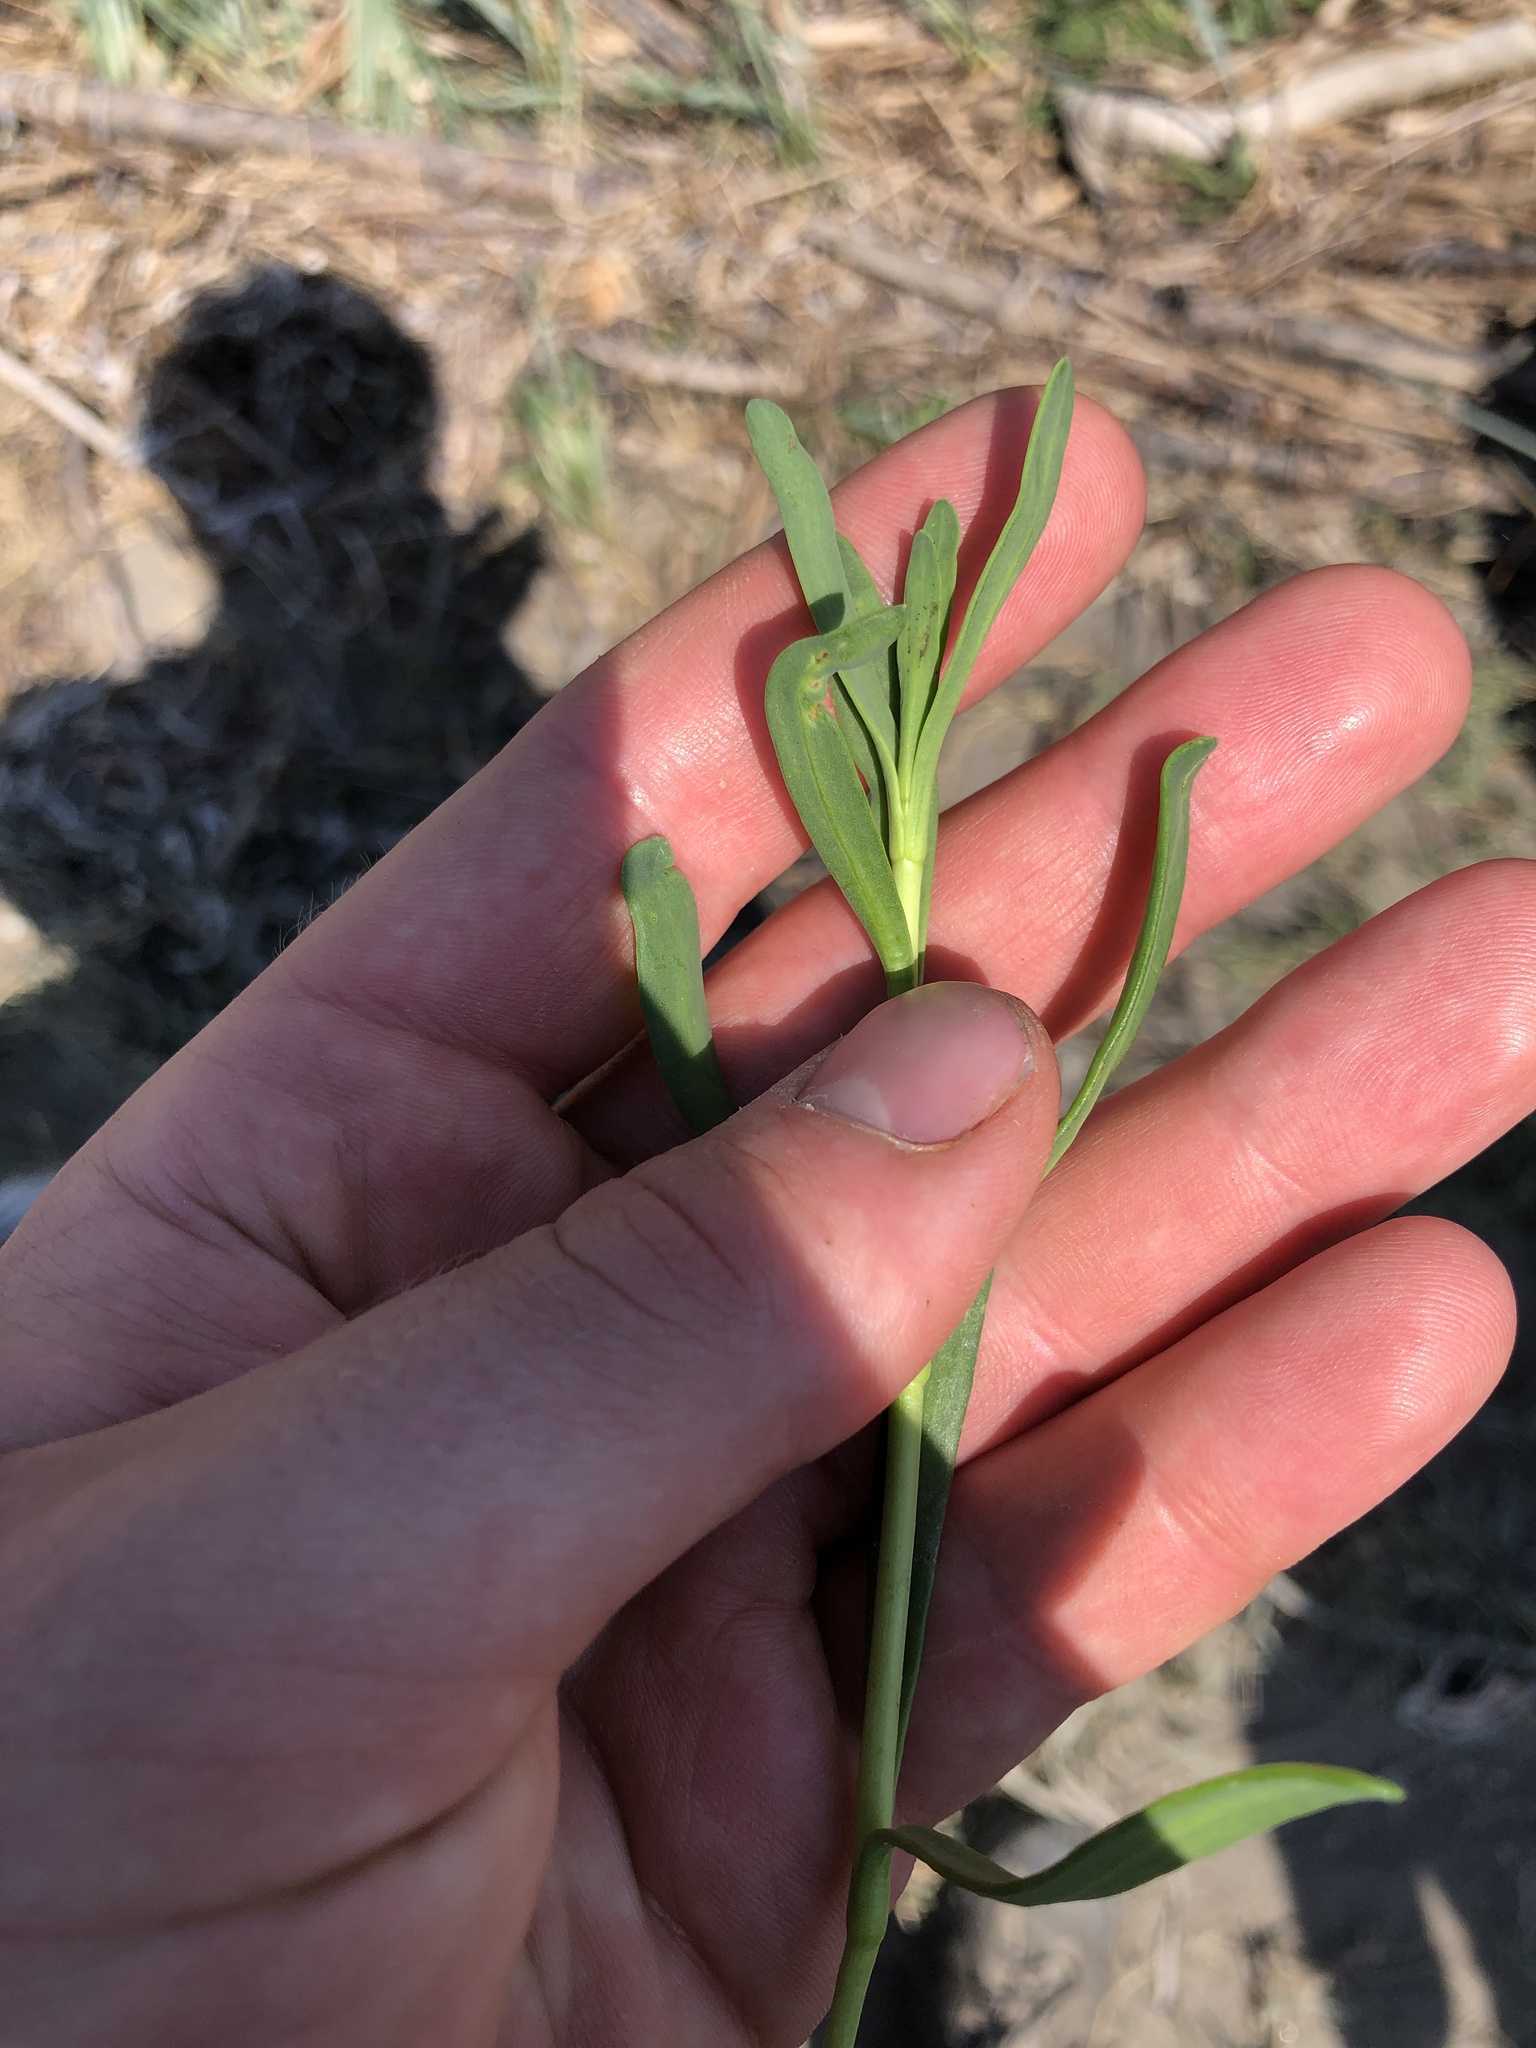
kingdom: Plantae
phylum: Tracheophyta
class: Magnoliopsida
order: Asterales
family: Asteraceae
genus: Jaumea
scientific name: Jaumea carnosa
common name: Fleshy jaumea
